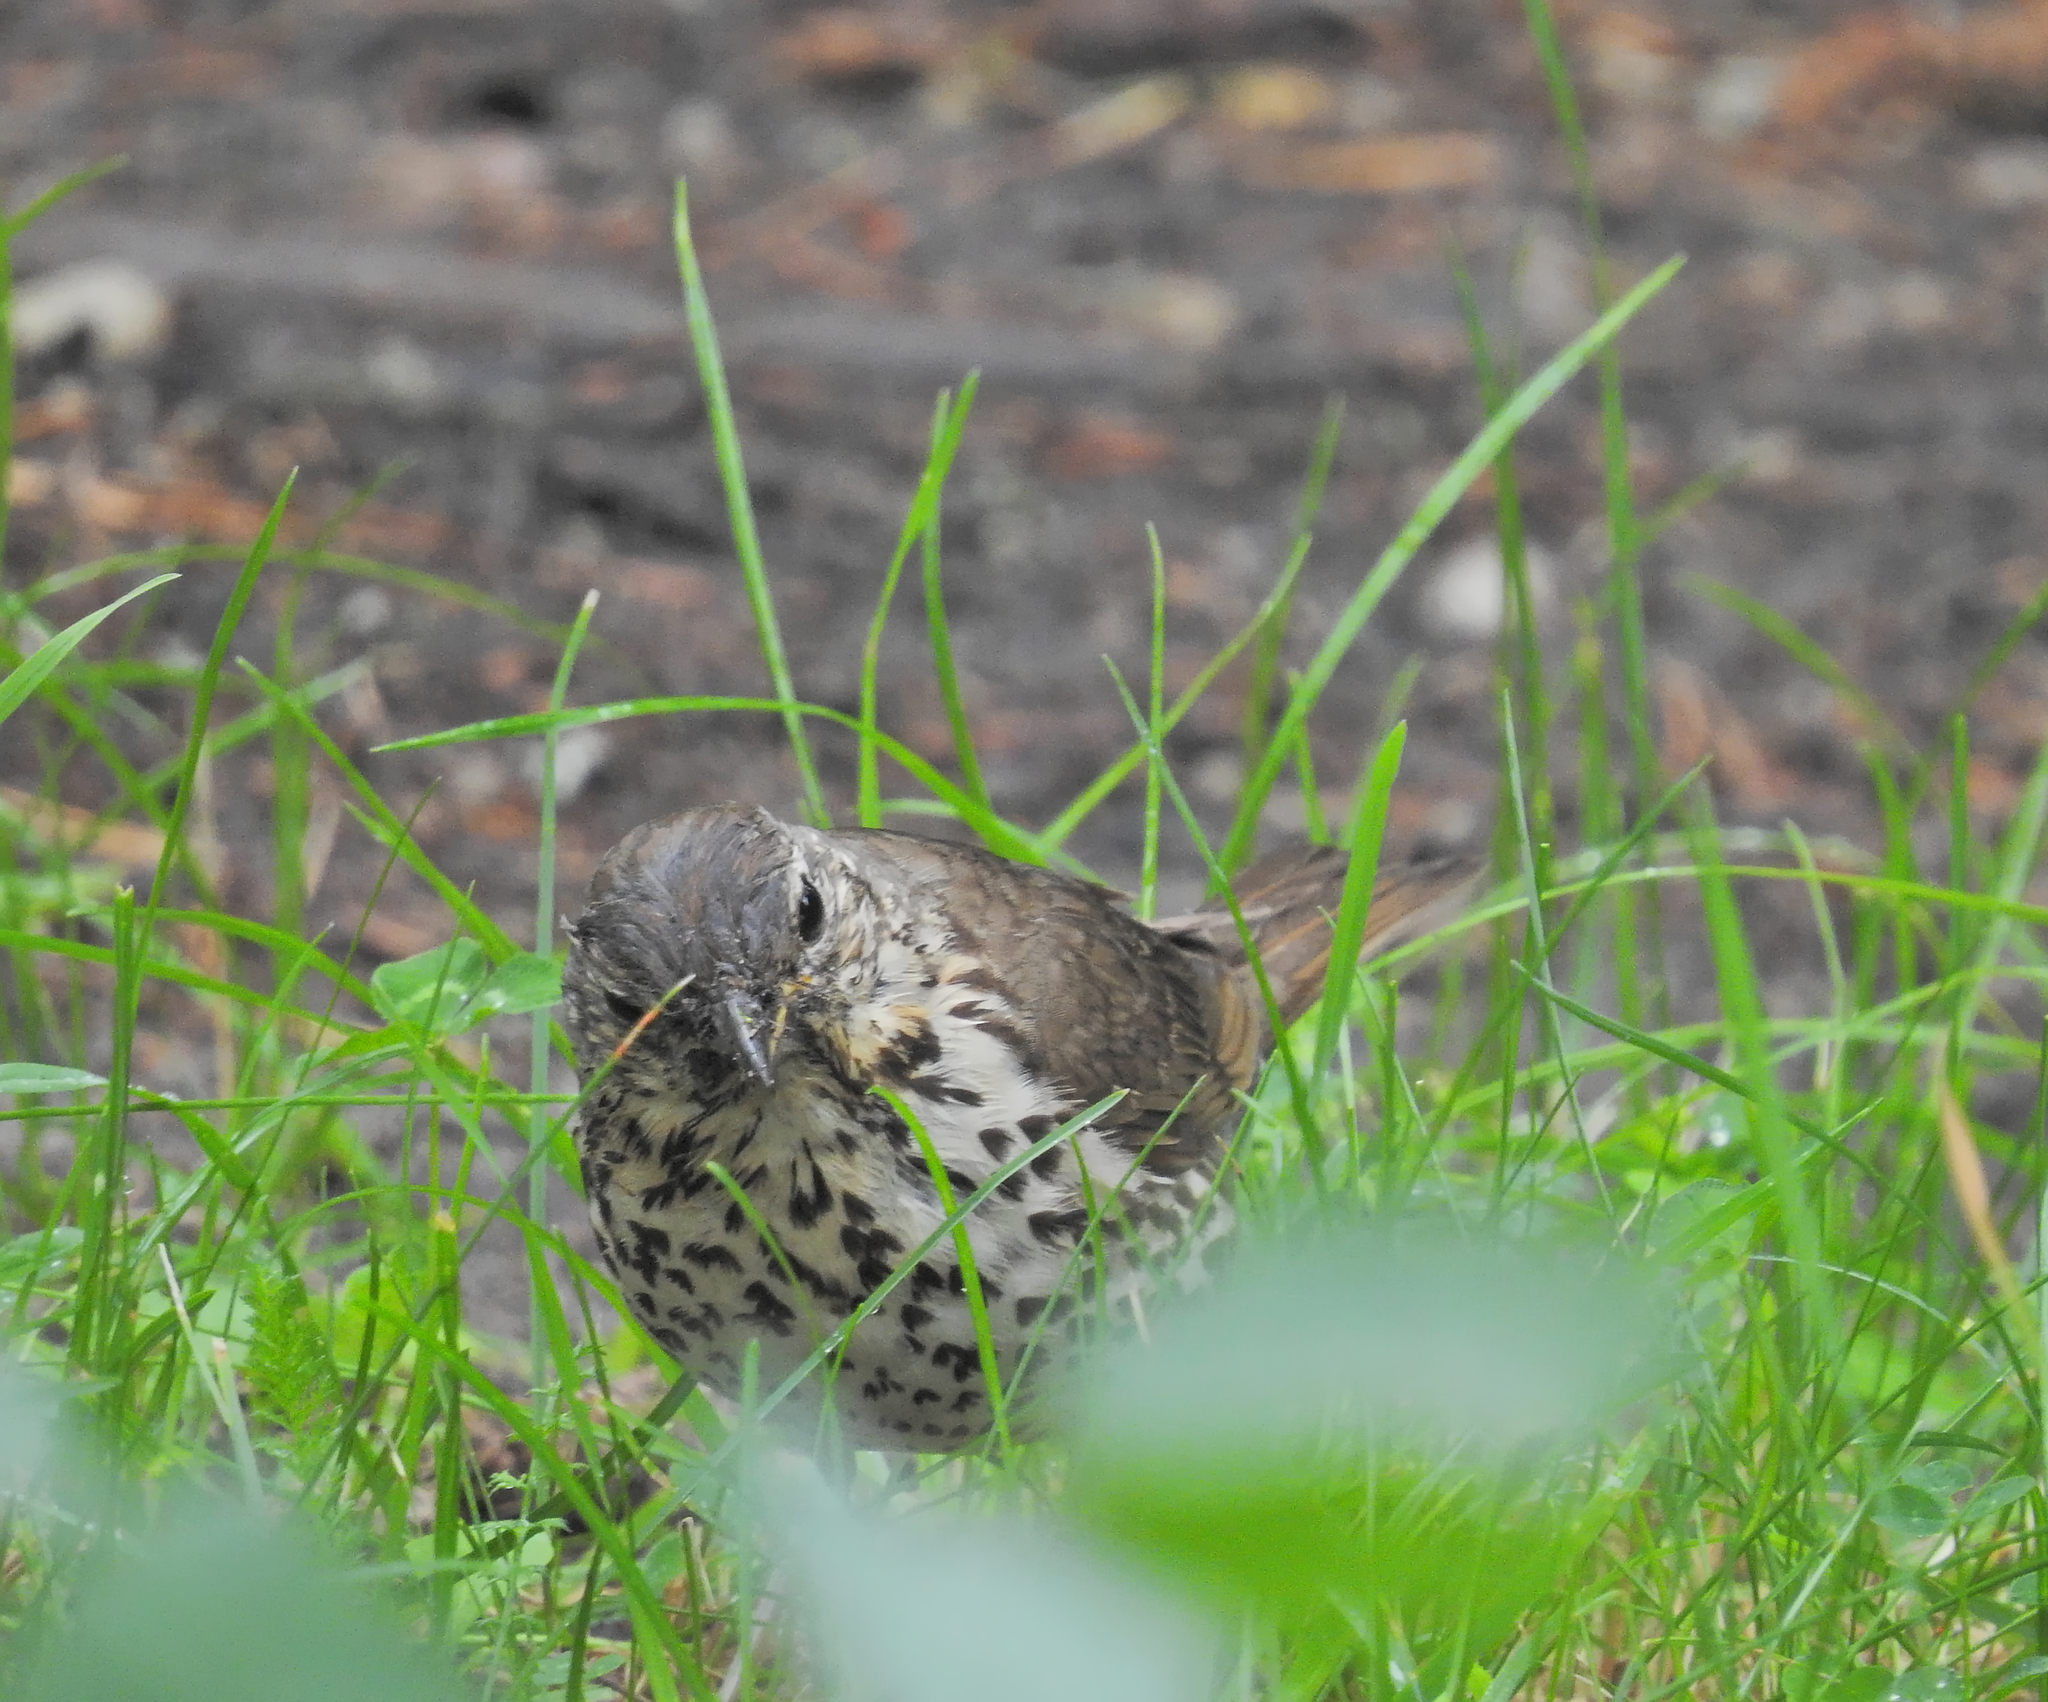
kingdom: Animalia
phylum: Chordata
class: Aves
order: Passeriformes
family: Turdidae
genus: Turdus
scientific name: Turdus philomelos
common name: Song thrush
